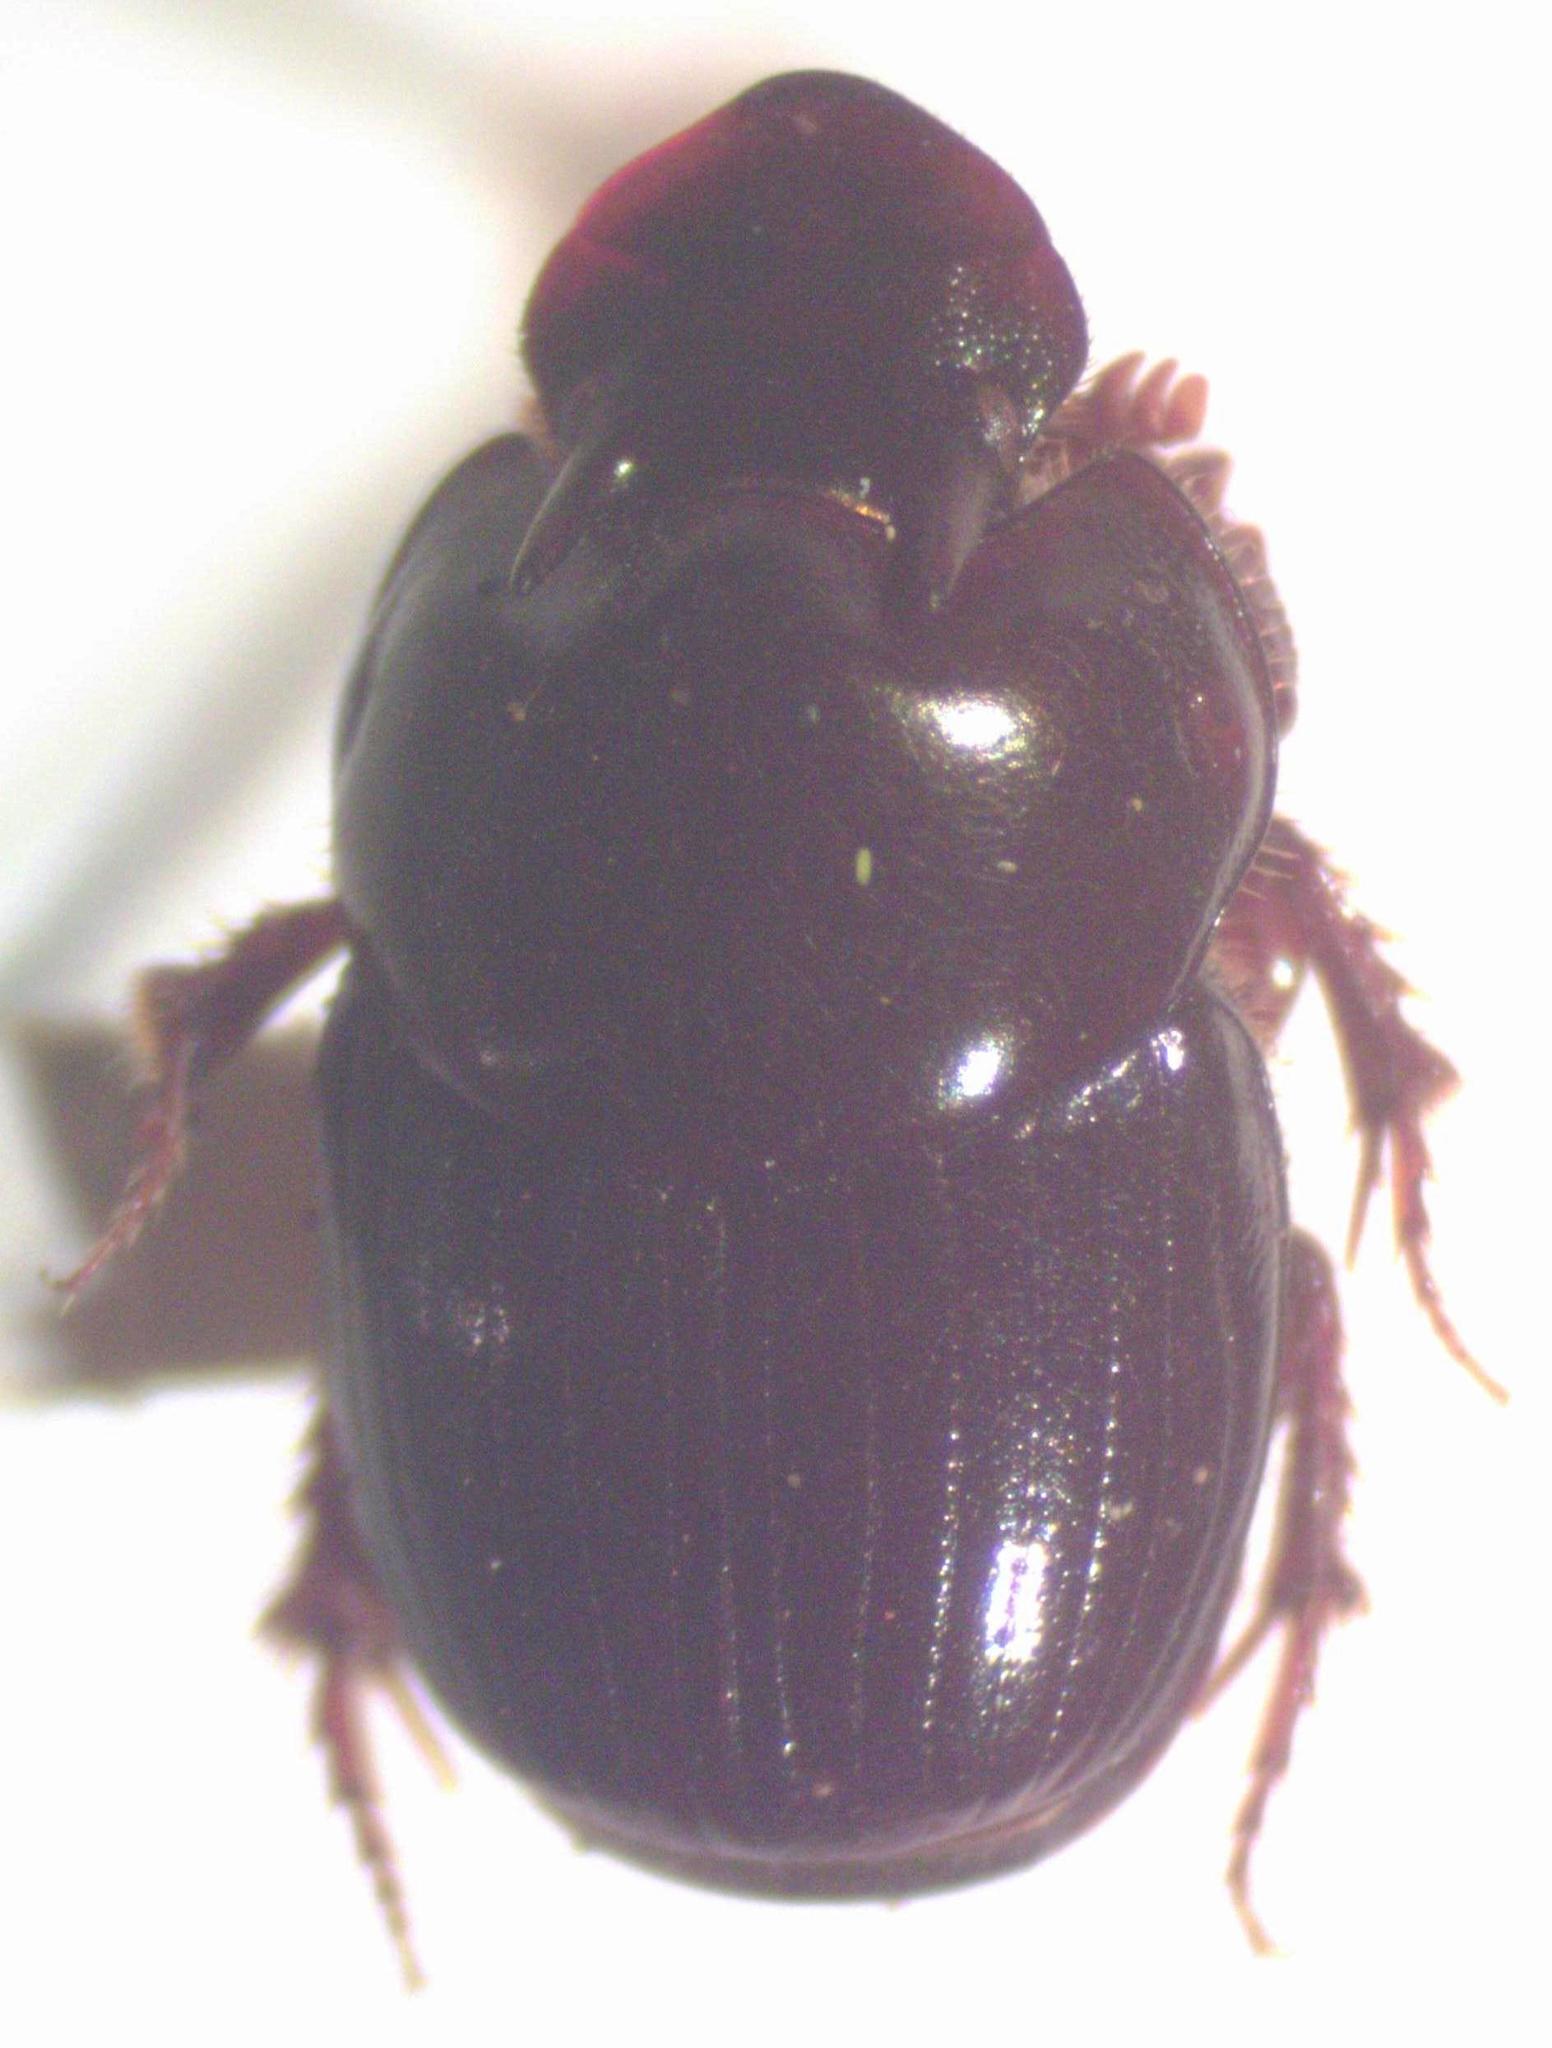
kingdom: Animalia
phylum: Arthropoda
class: Insecta
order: Coleoptera
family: Scarabaeidae
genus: Onthophagus
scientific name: Onthophagus acuminatus
